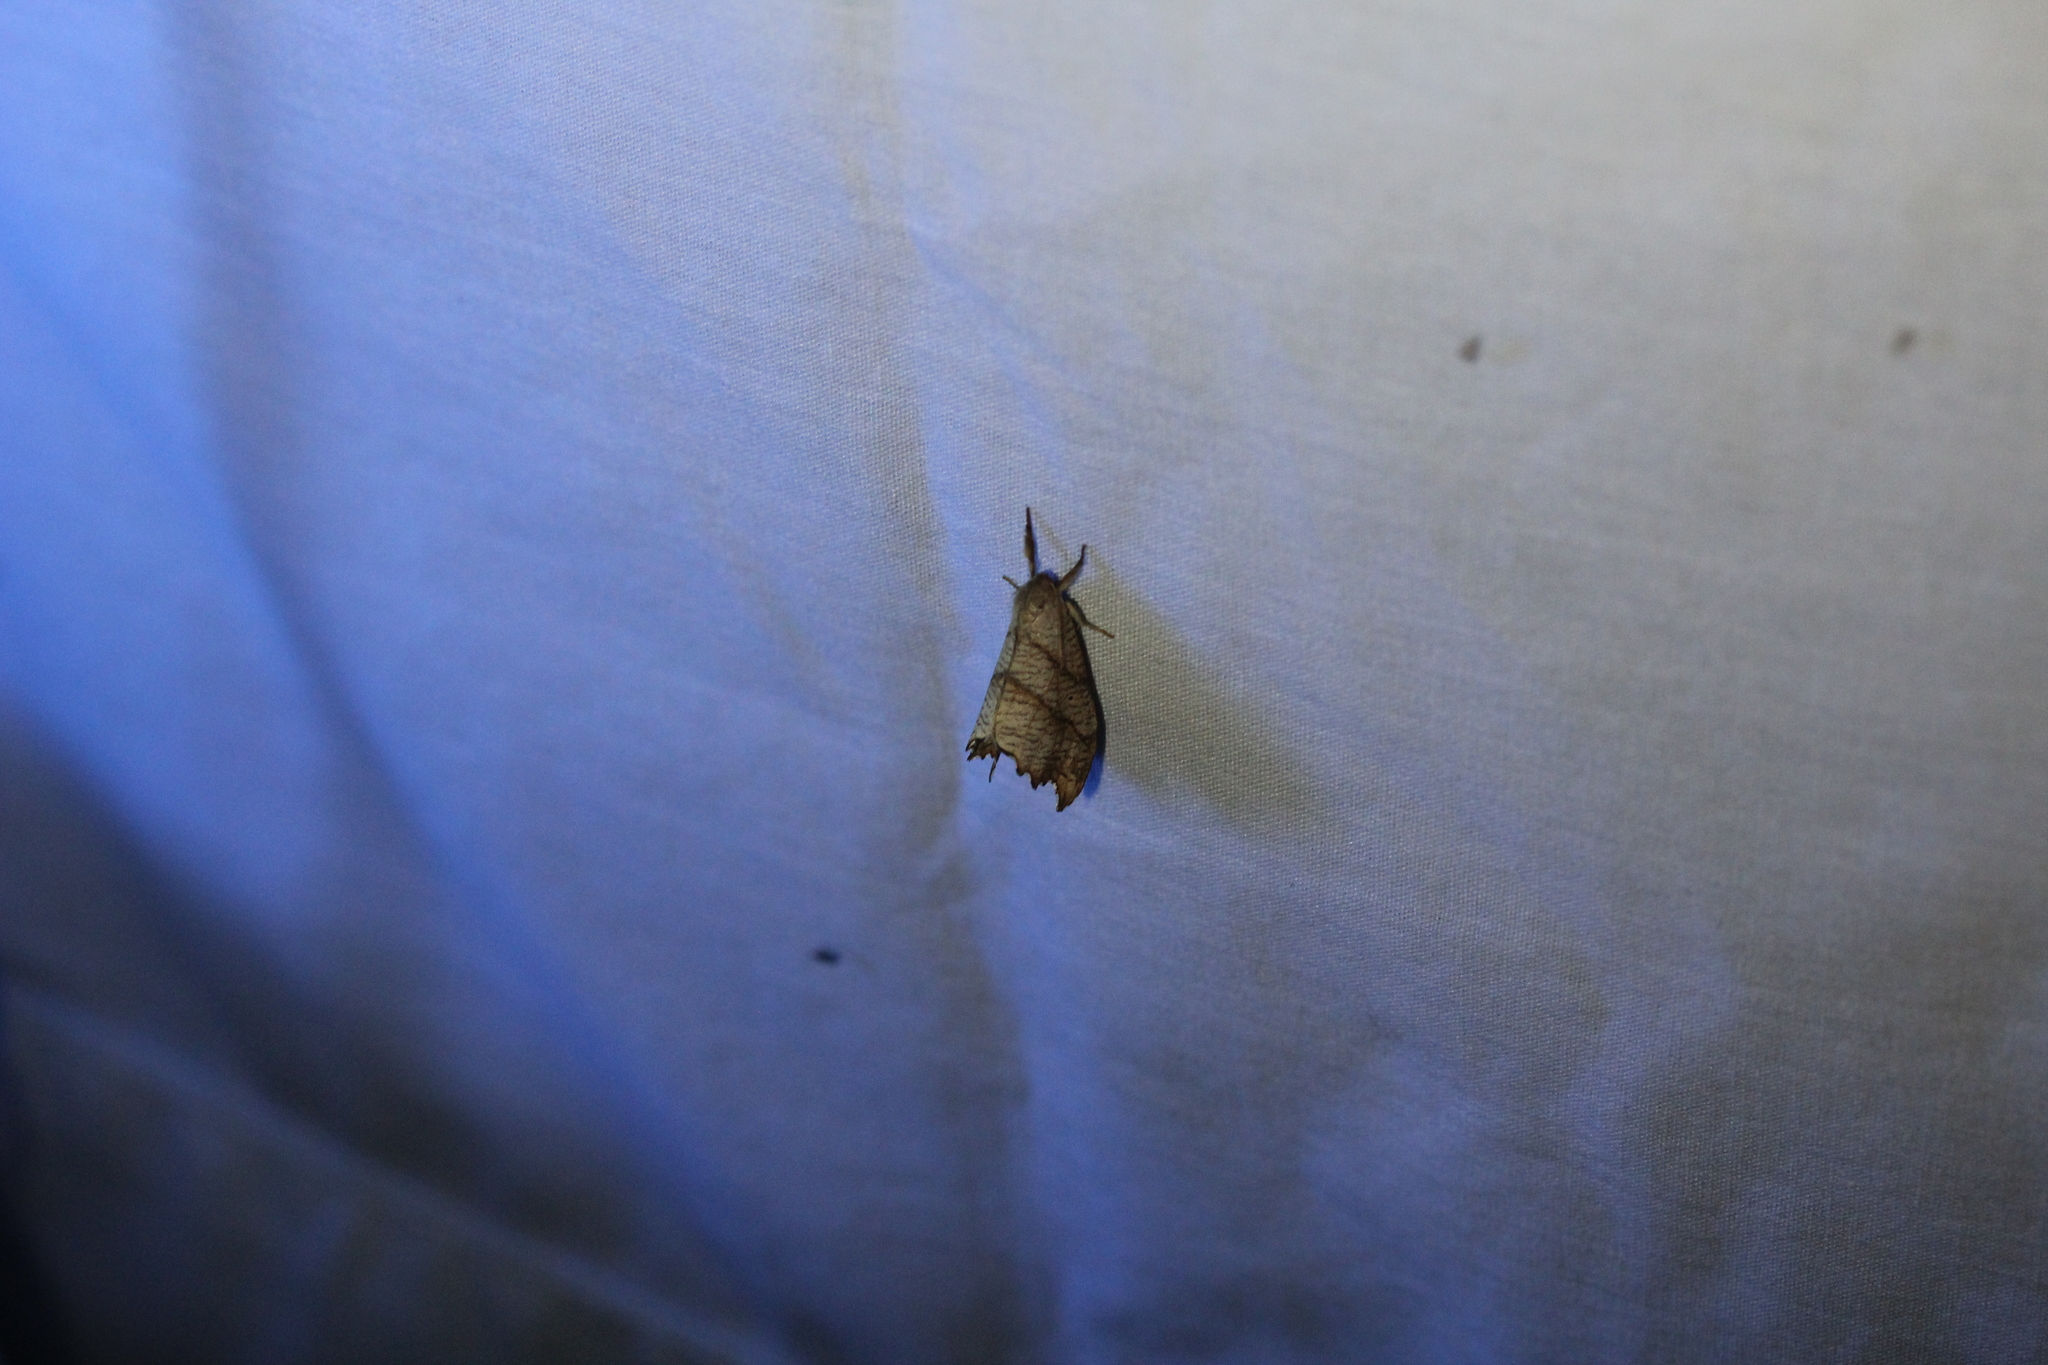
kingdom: Animalia
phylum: Arthropoda
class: Insecta
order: Lepidoptera
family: Drepanidae
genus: Falcaria
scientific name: Falcaria bilineata
